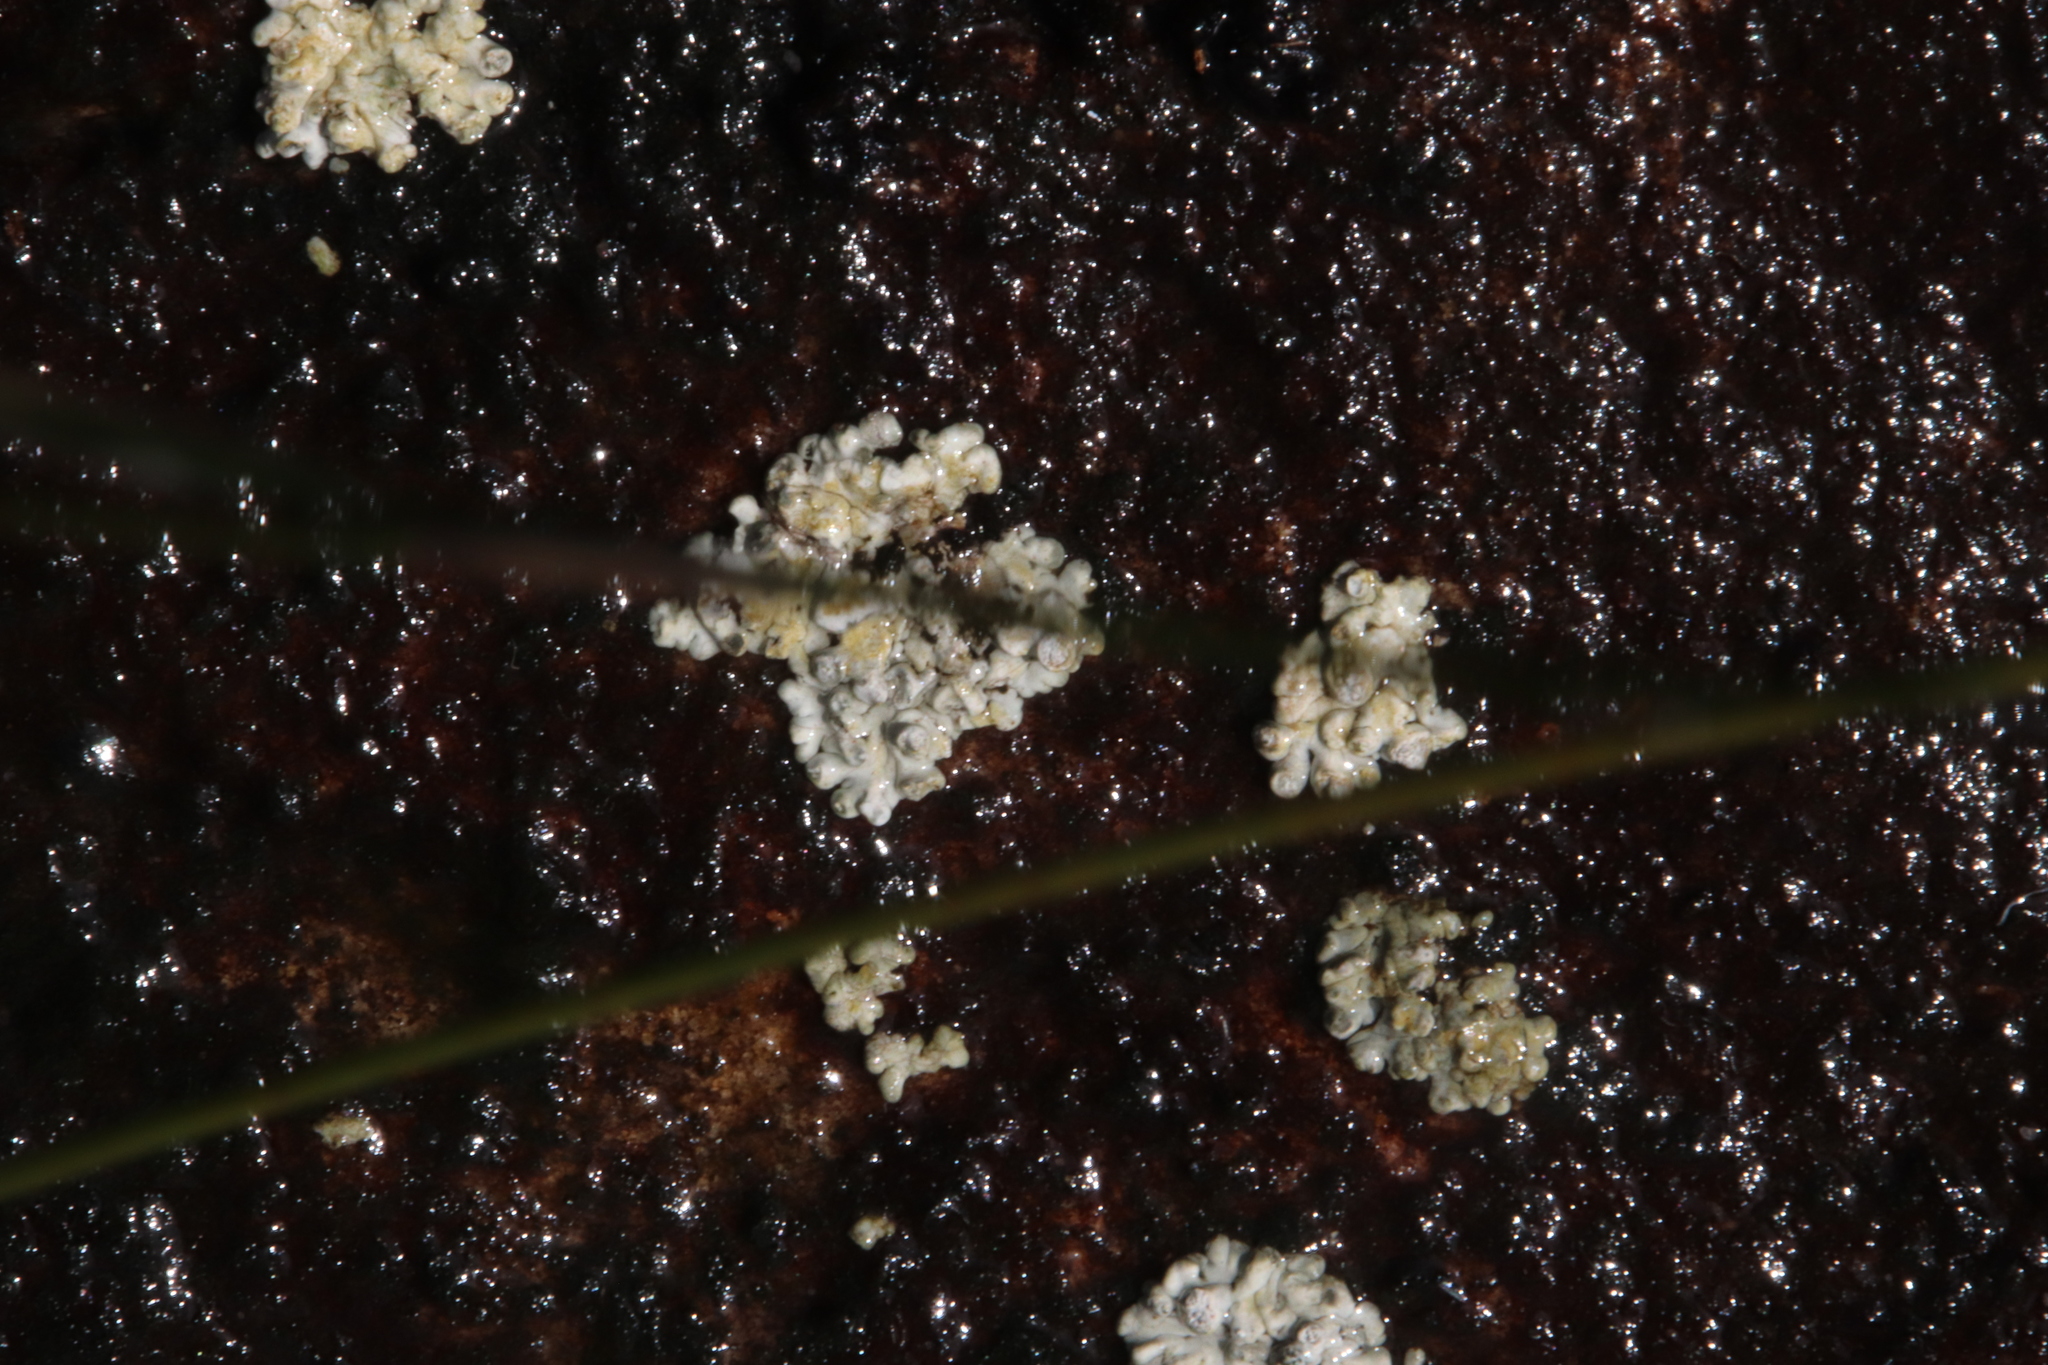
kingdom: Fungi
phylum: Ascomycota
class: Lecanoromycetes
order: Pertusariales
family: Icmadophilaceae
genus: Siphula
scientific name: Siphula verrucigera
